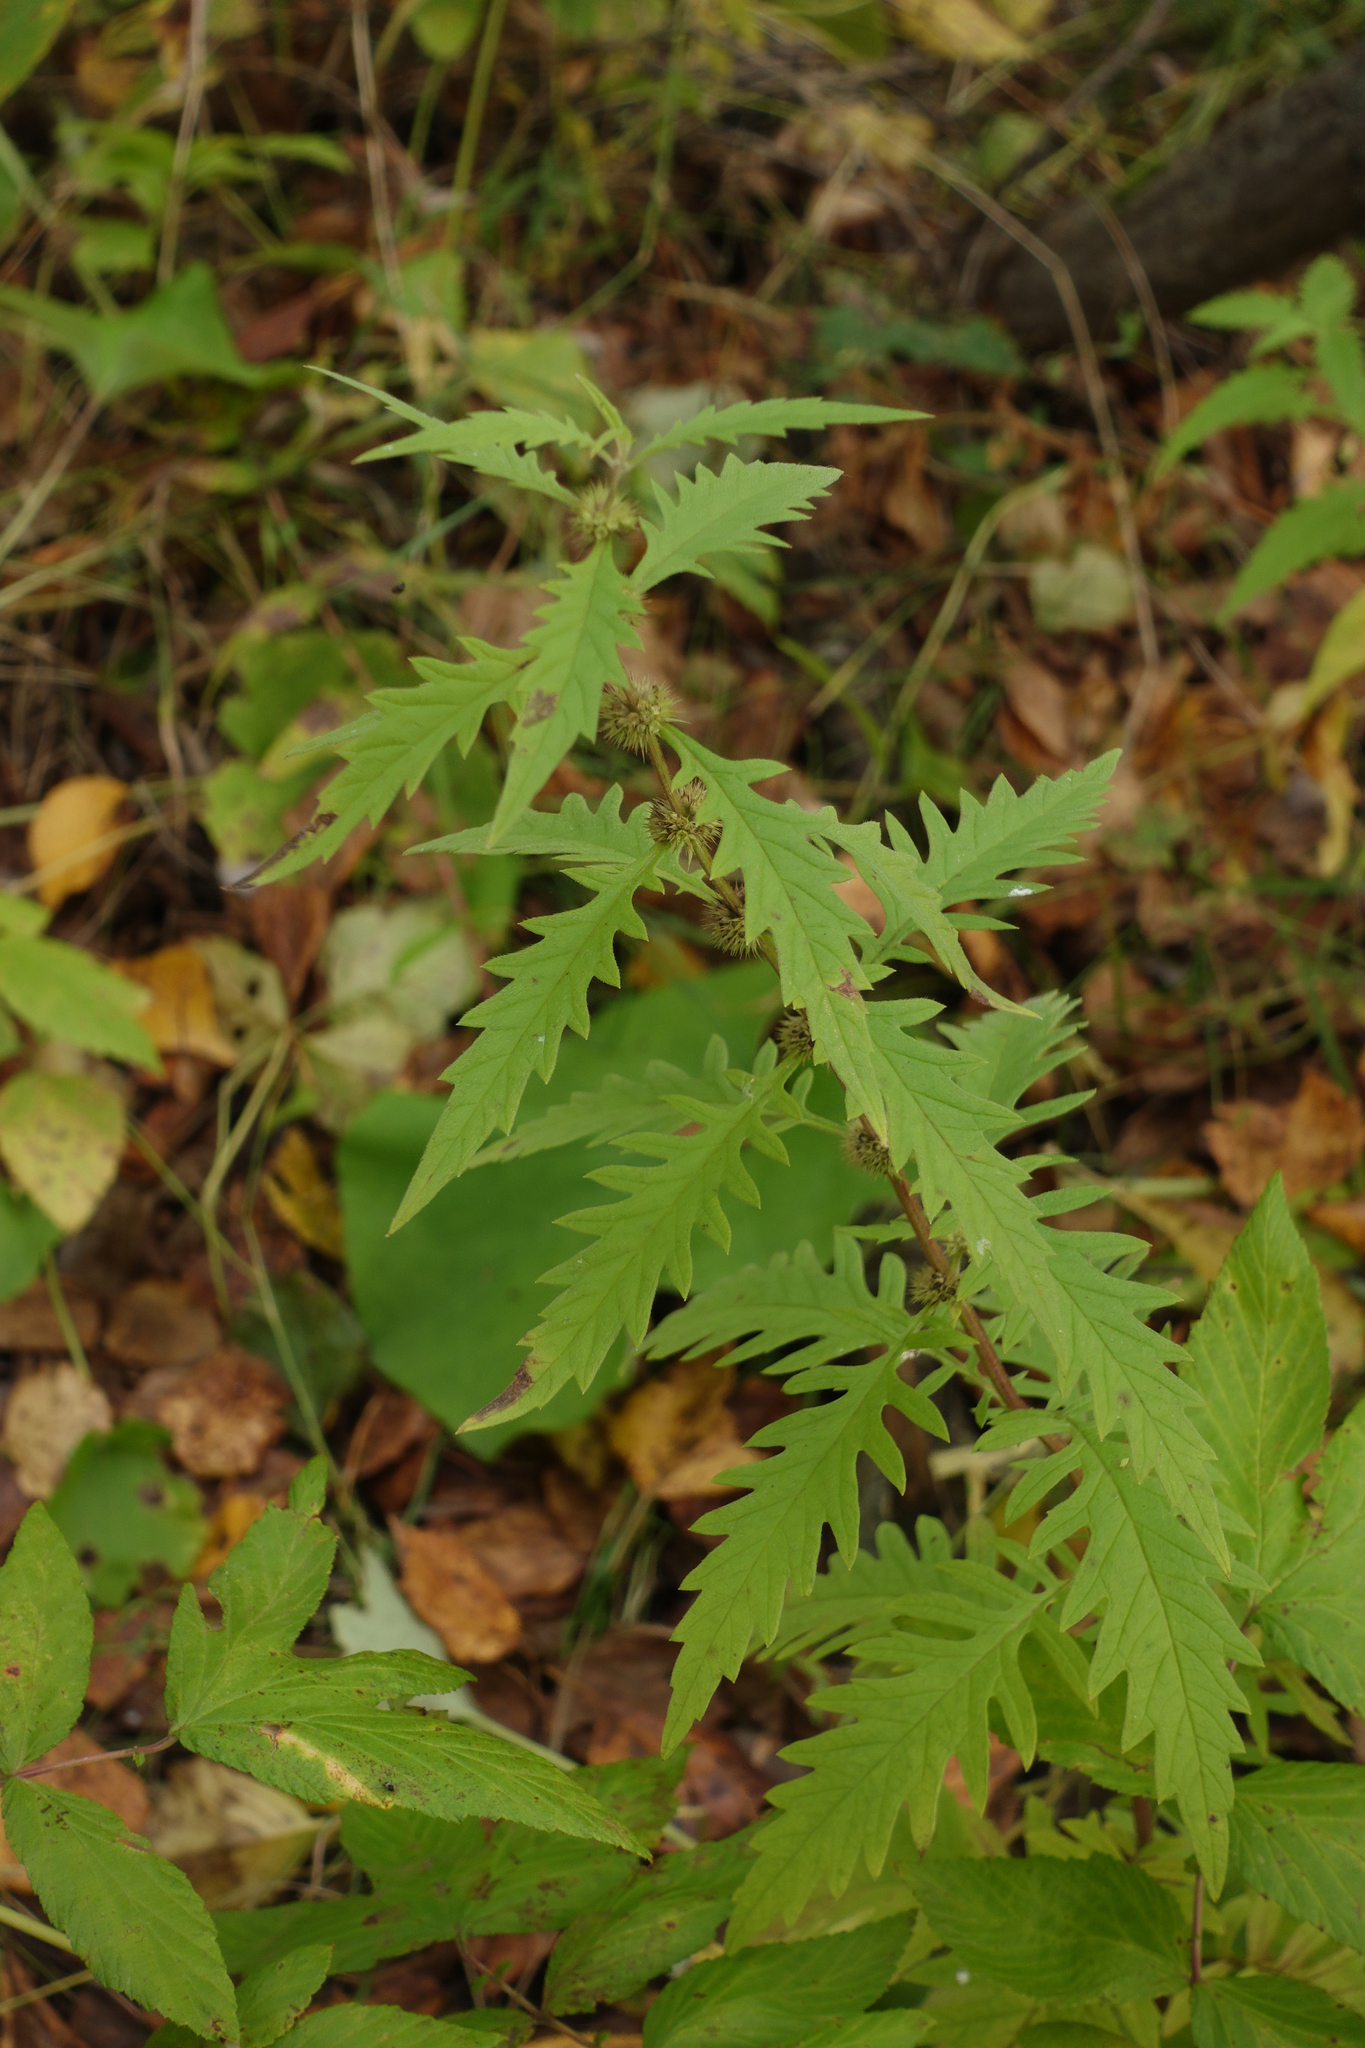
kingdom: Plantae
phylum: Tracheophyta
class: Magnoliopsida
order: Lamiales
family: Lamiaceae
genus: Lycopus
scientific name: Lycopus europaeus
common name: European bugleweed
